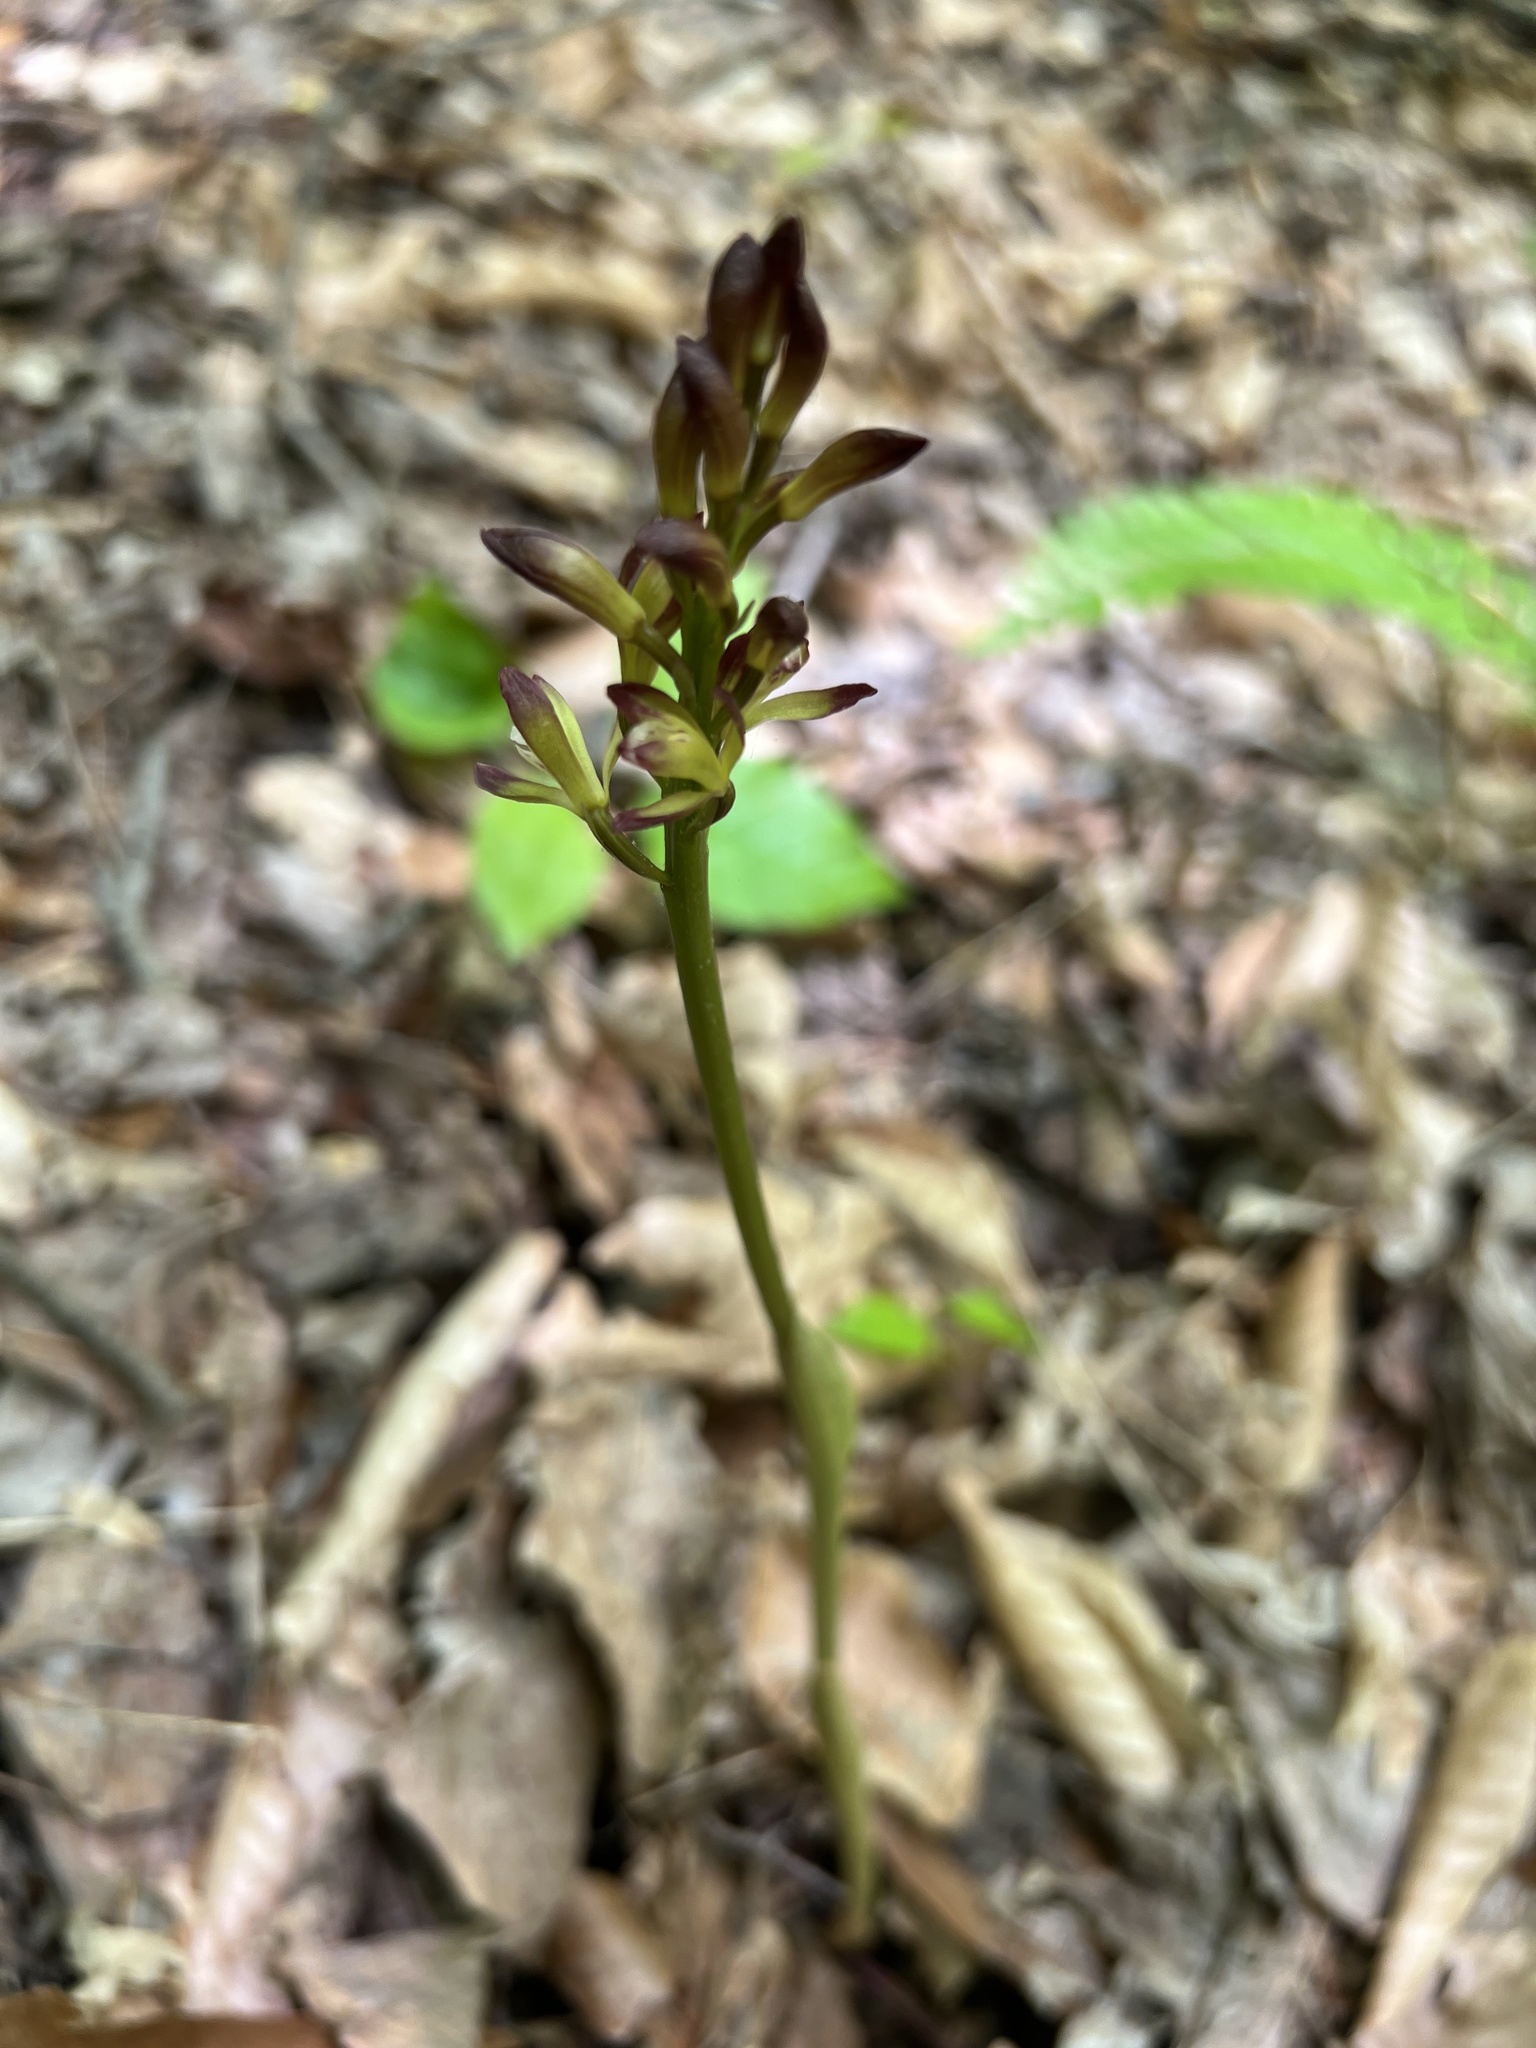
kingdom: Plantae
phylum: Tracheophyta
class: Liliopsida
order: Asparagales
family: Orchidaceae
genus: Aplectrum
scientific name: Aplectrum hyemale
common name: Adam-and-eve
